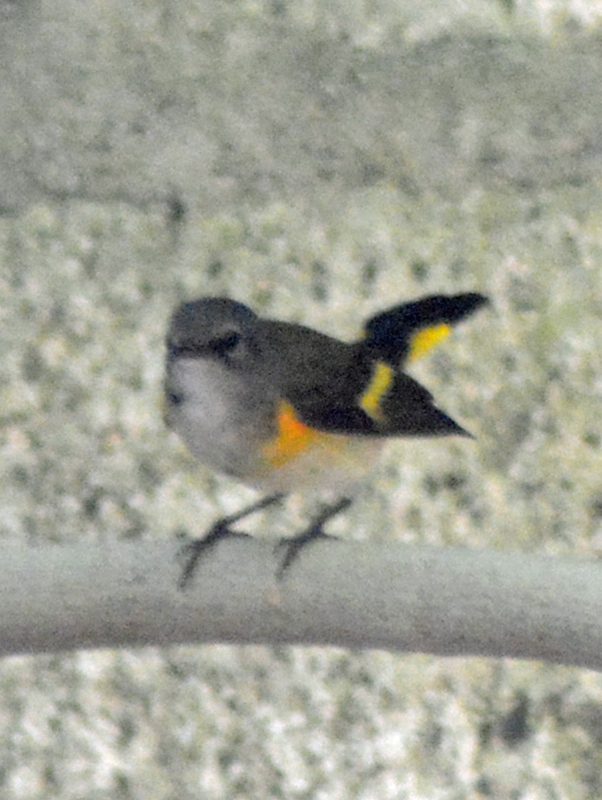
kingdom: Animalia
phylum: Chordata
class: Aves
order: Passeriformes
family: Parulidae
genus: Setophaga
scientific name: Setophaga ruticilla
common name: American redstart
